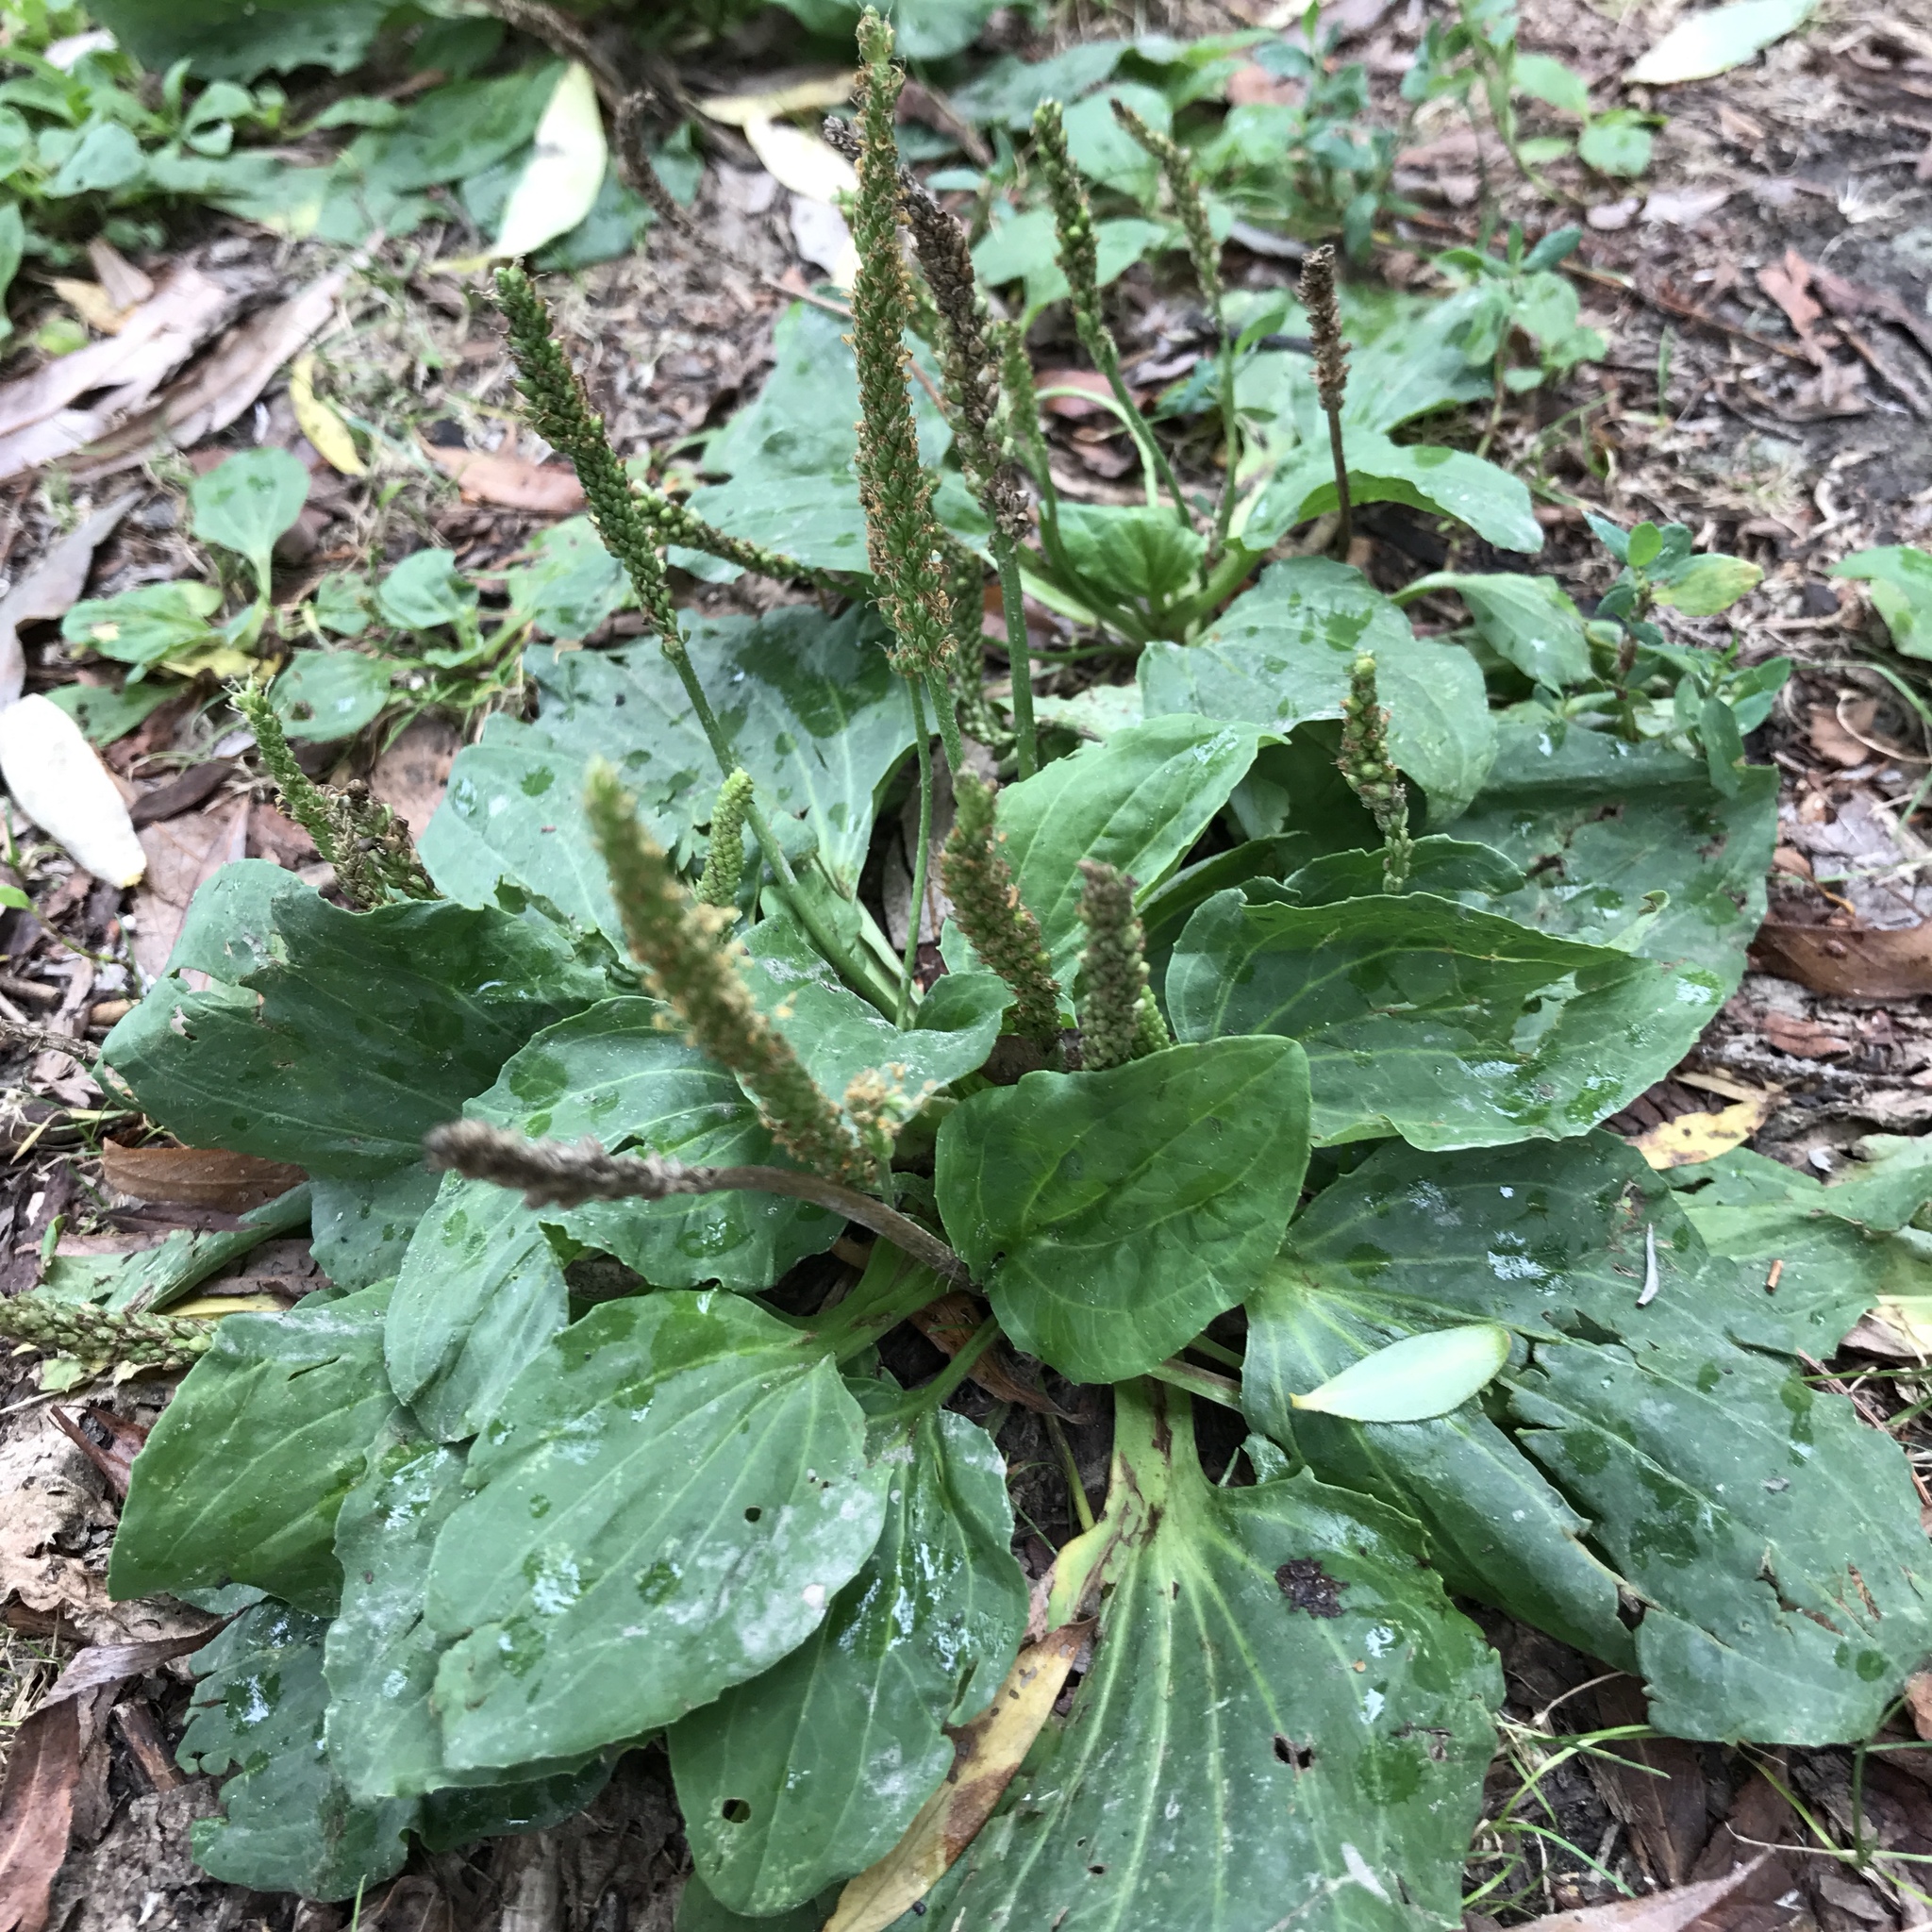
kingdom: Plantae
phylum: Tracheophyta
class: Magnoliopsida
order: Lamiales
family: Plantaginaceae
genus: Plantago
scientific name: Plantago major
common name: Common plantain
